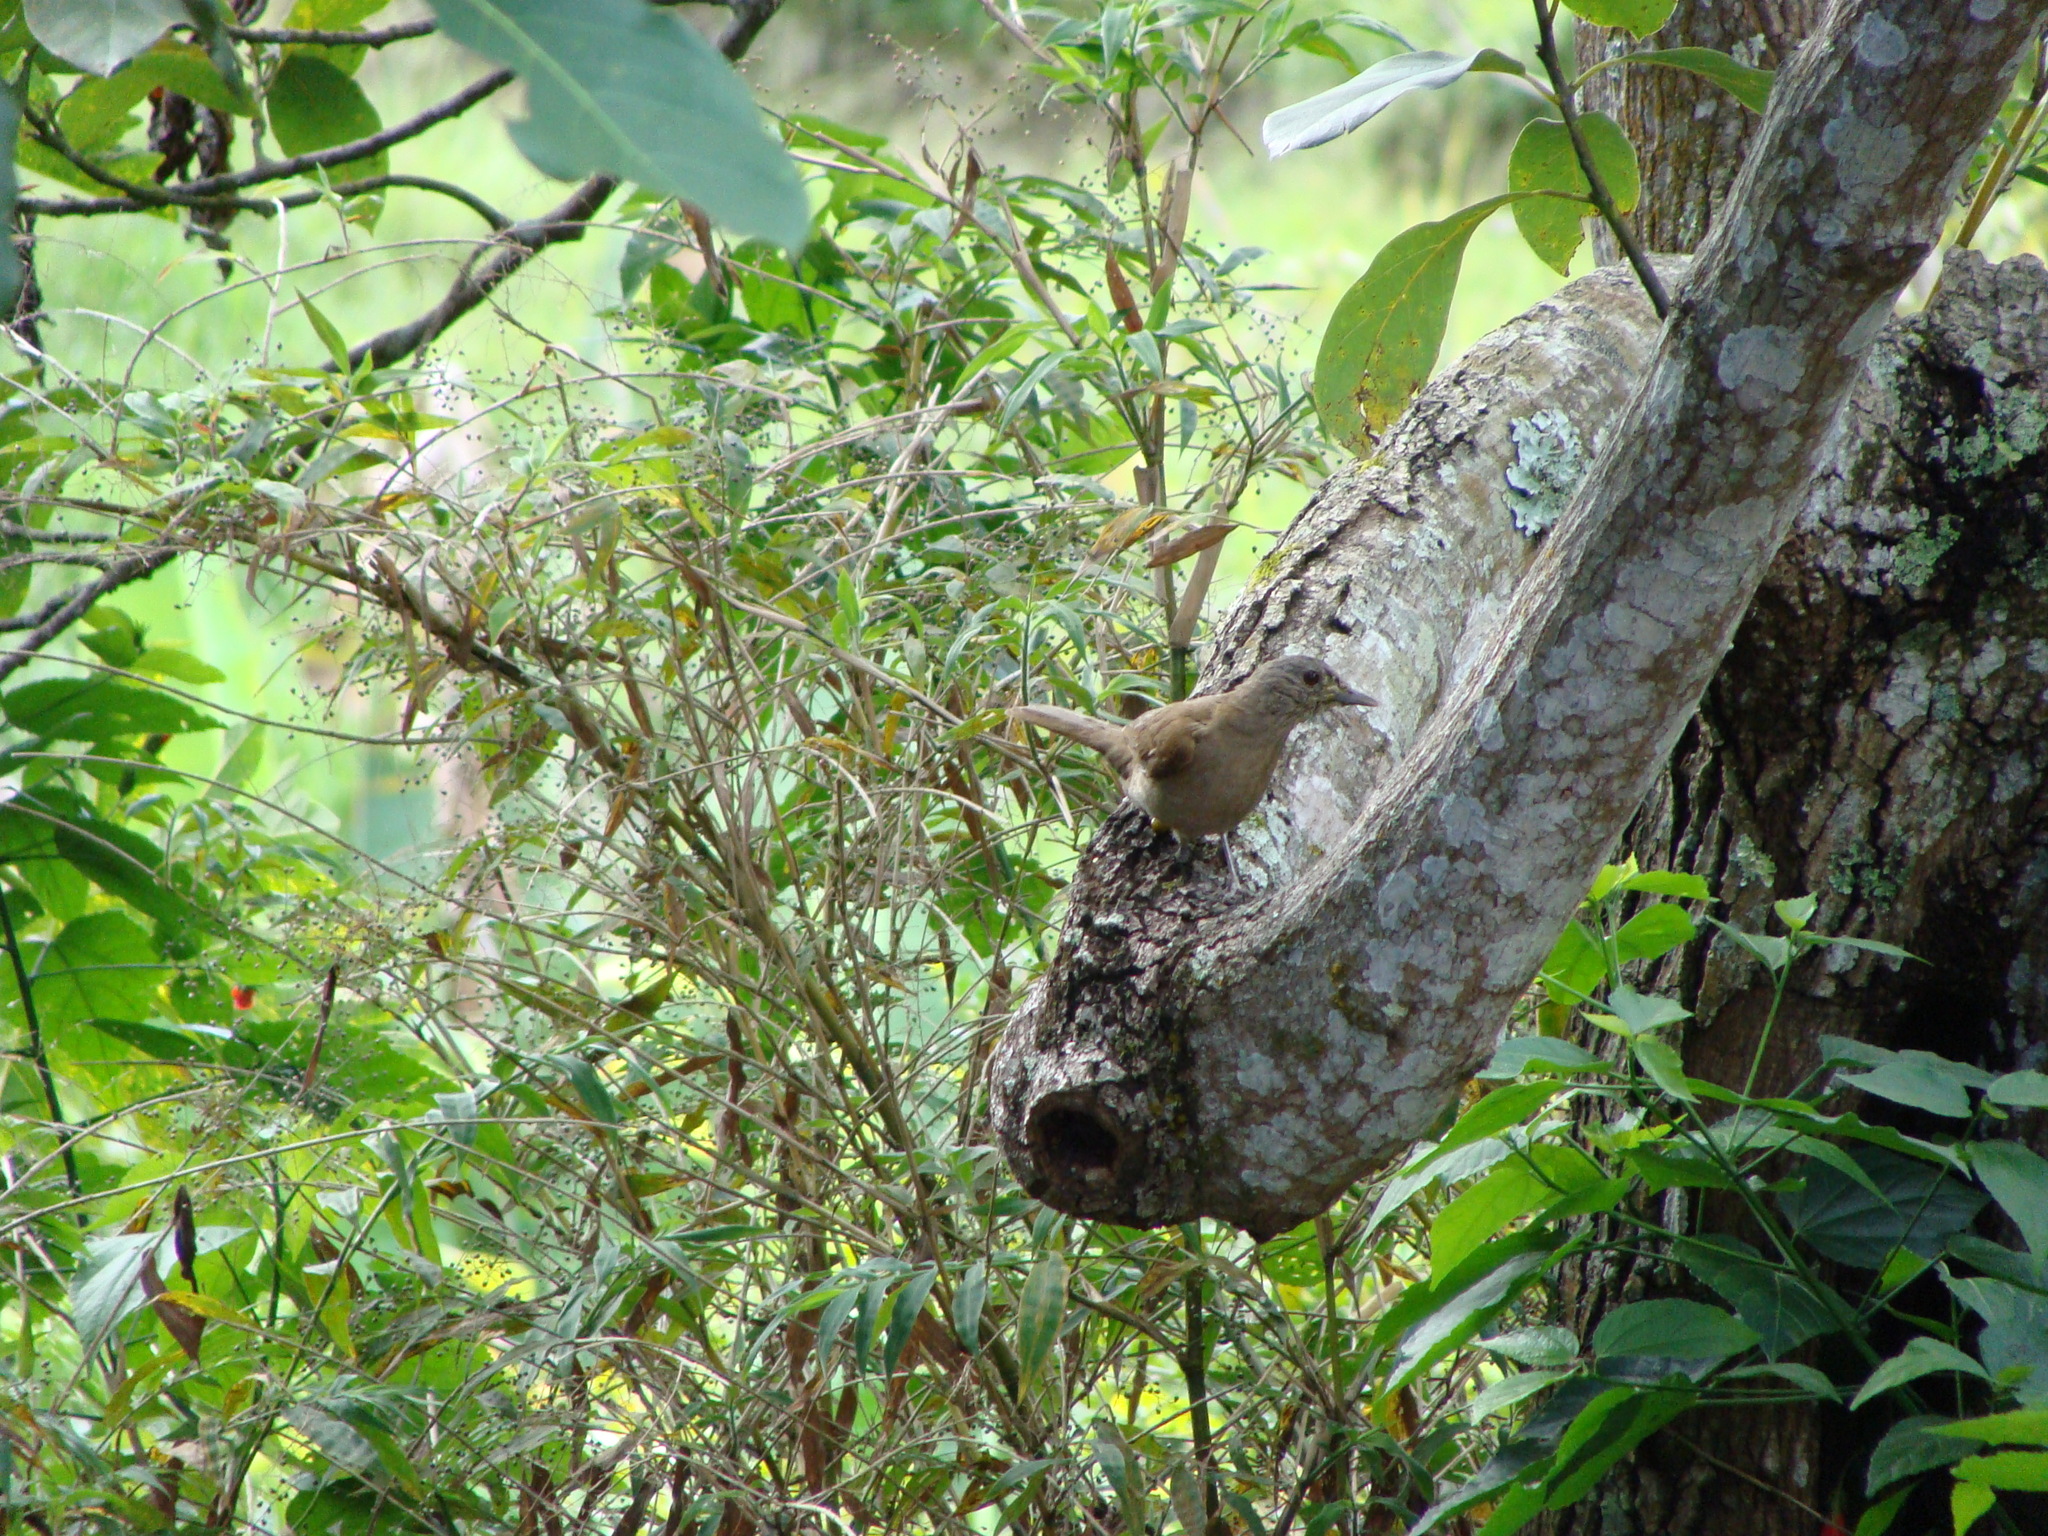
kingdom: Animalia
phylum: Chordata
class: Aves
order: Passeriformes
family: Turdidae
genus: Turdus
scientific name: Turdus leucomelas
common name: Pale-breasted thrush
